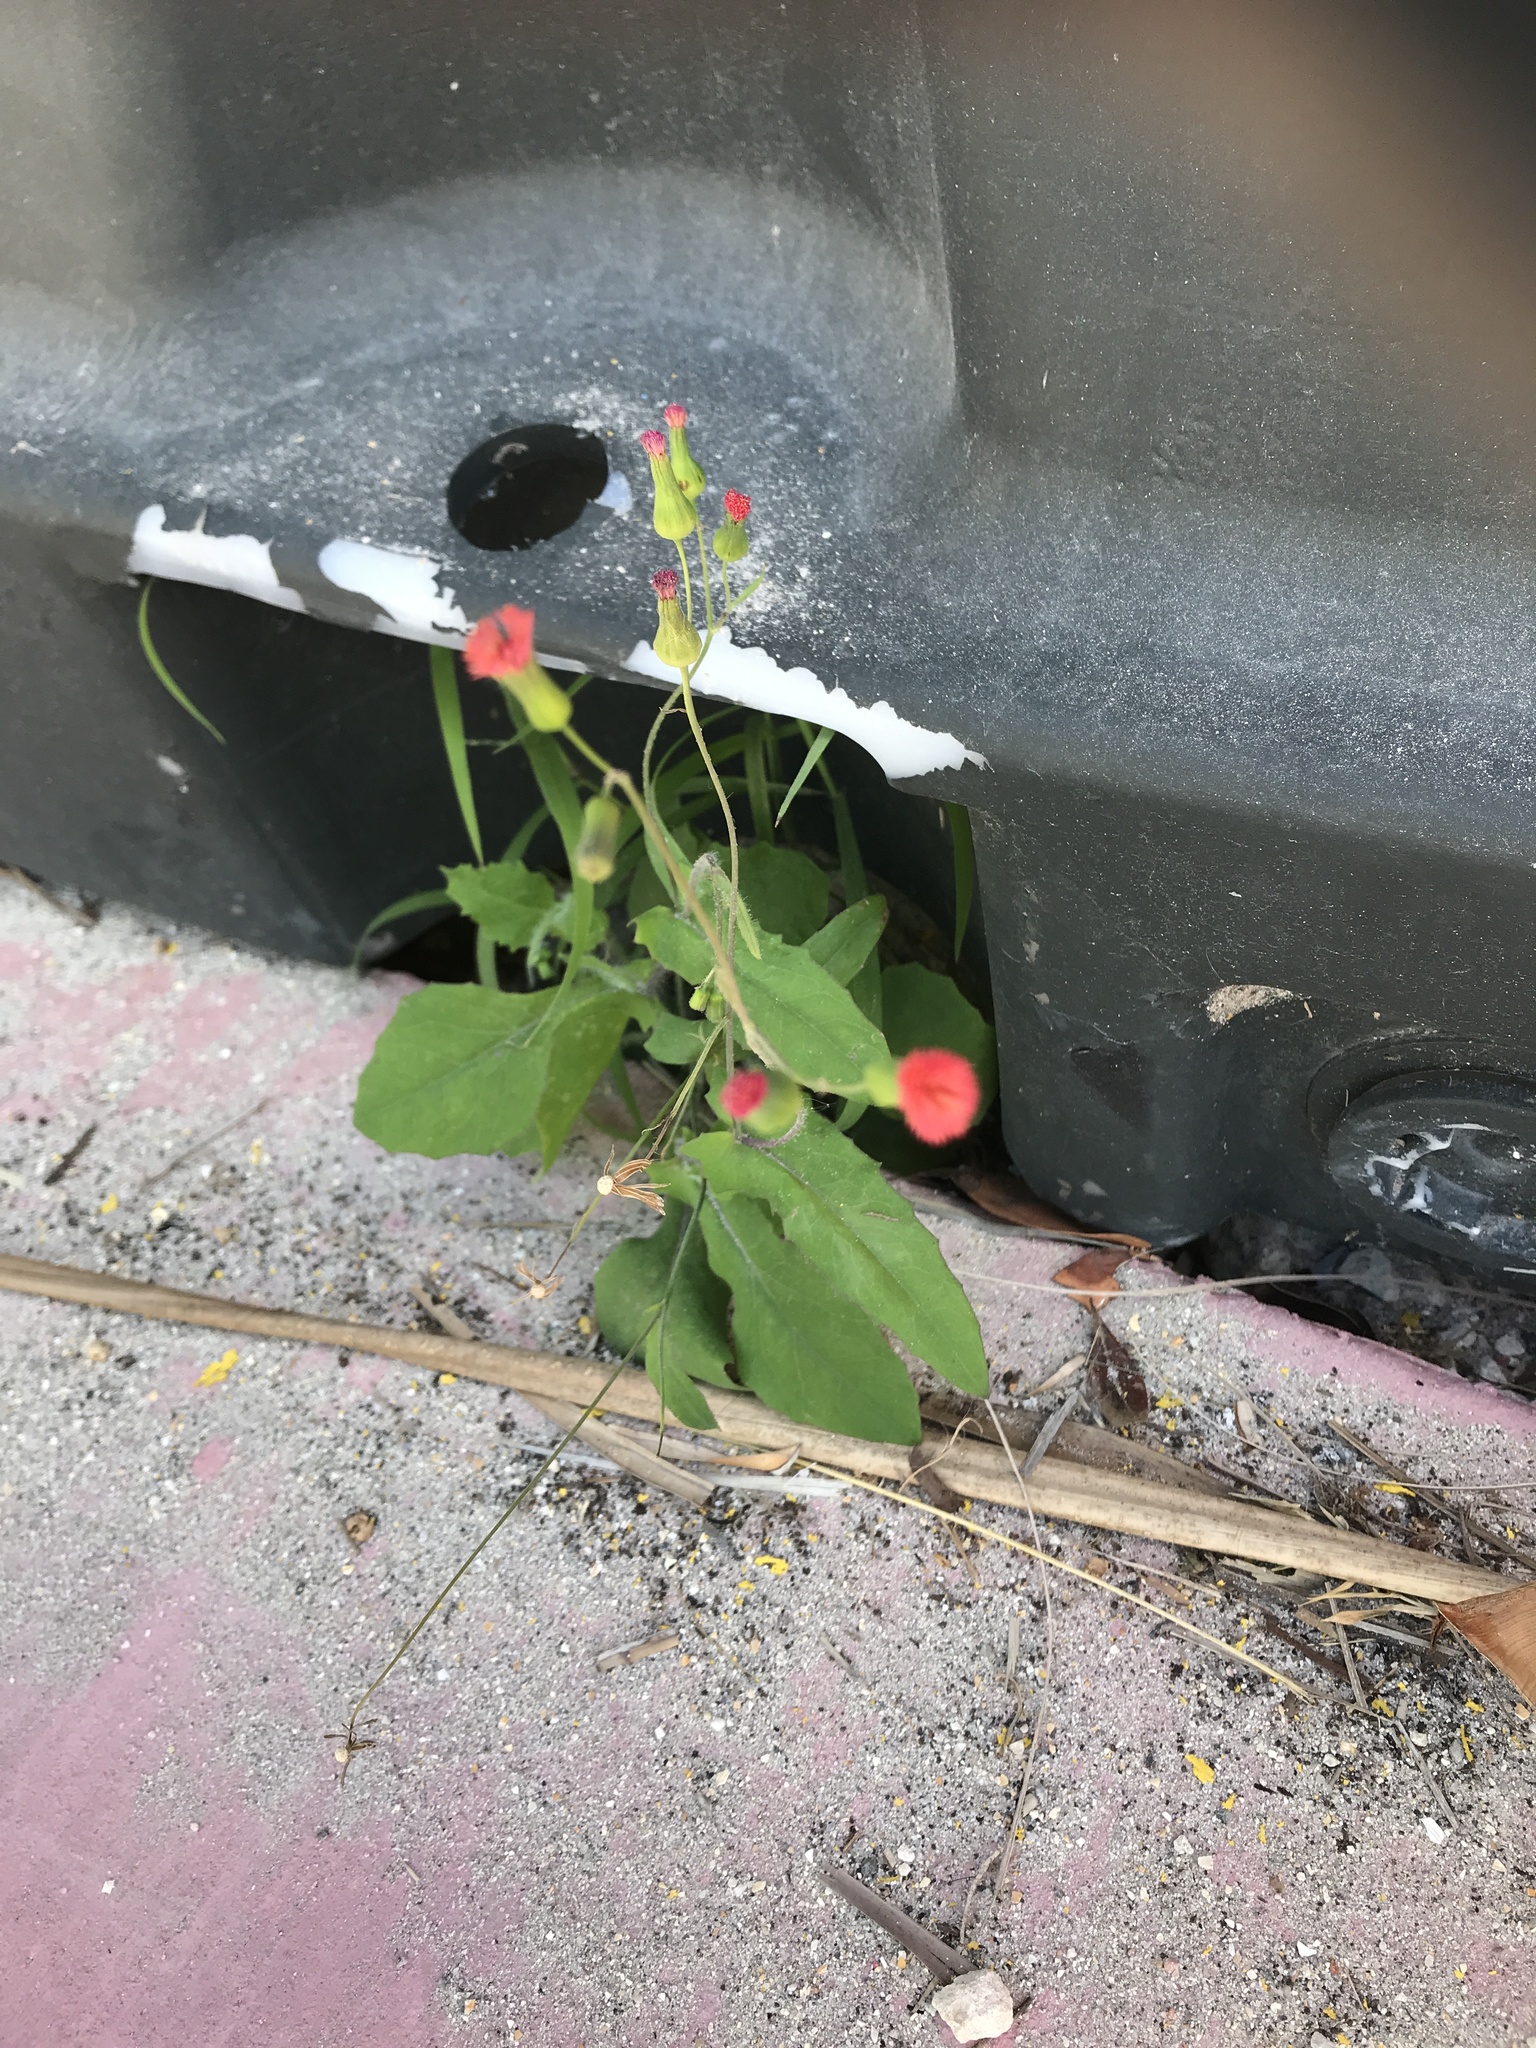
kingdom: Plantae
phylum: Tracheophyta
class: Magnoliopsida
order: Asterales
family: Asteraceae
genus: Emilia
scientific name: Emilia fosbergii
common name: Florida tasselflower
